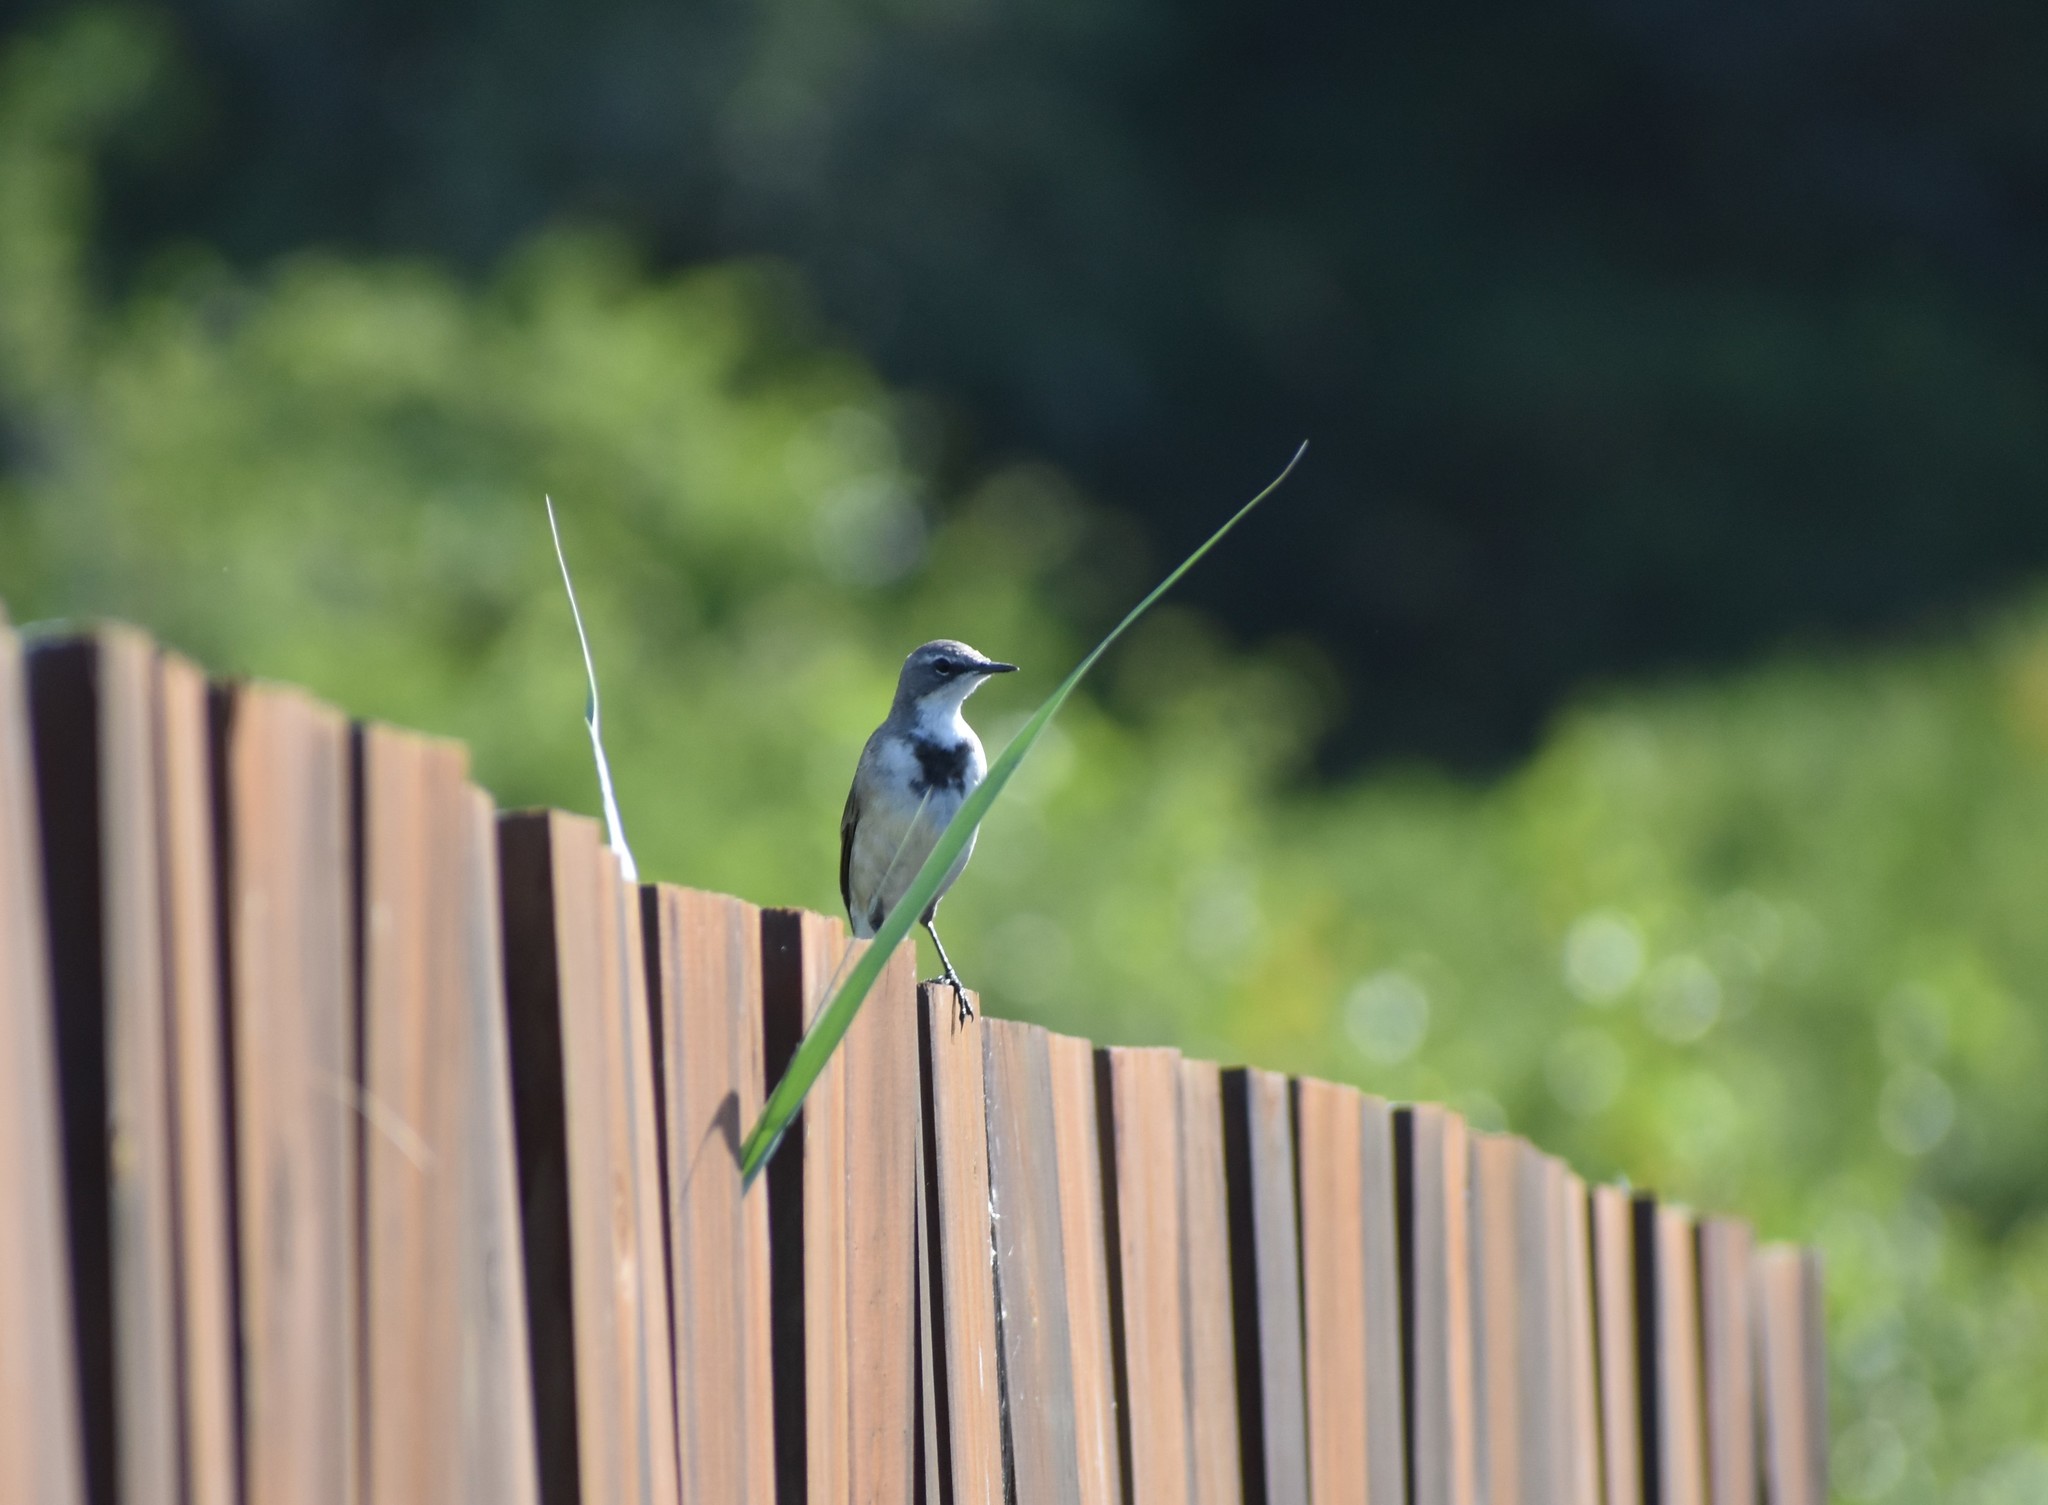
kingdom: Animalia
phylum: Chordata
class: Aves
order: Passeriformes
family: Motacillidae
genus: Motacilla
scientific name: Motacilla capensis
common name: Cape wagtail
